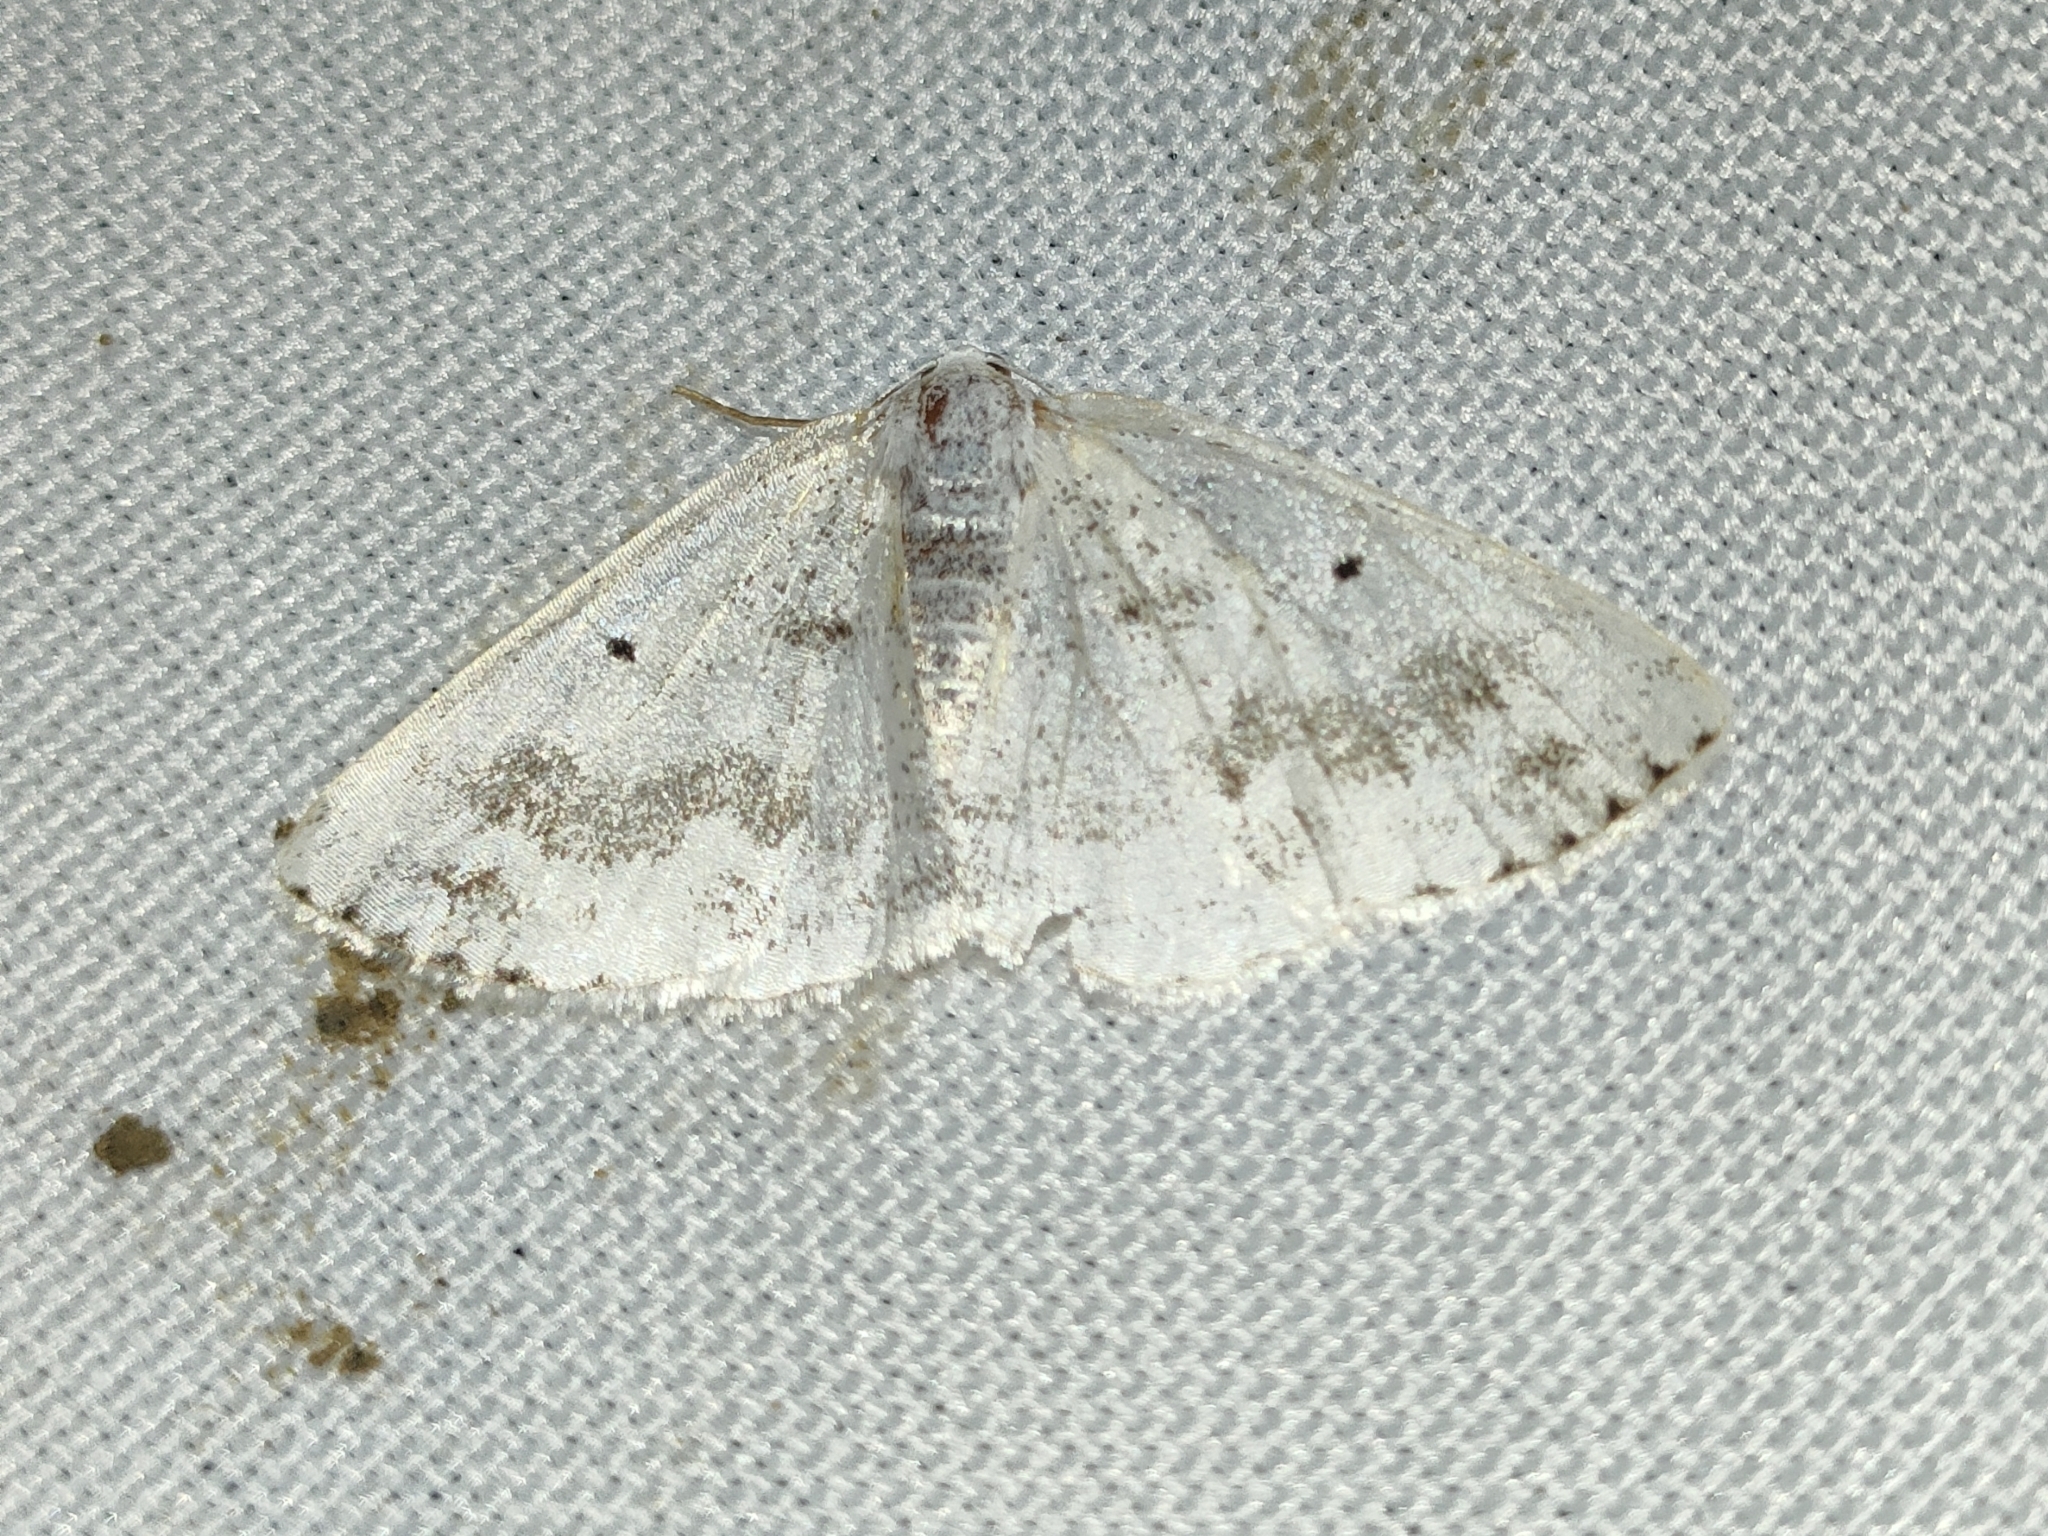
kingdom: Animalia
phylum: Arthropoda
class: Insecta
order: Lepidoptera
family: Geometridae
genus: Lomographa
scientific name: Lomographa temerata
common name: Clouded silver
